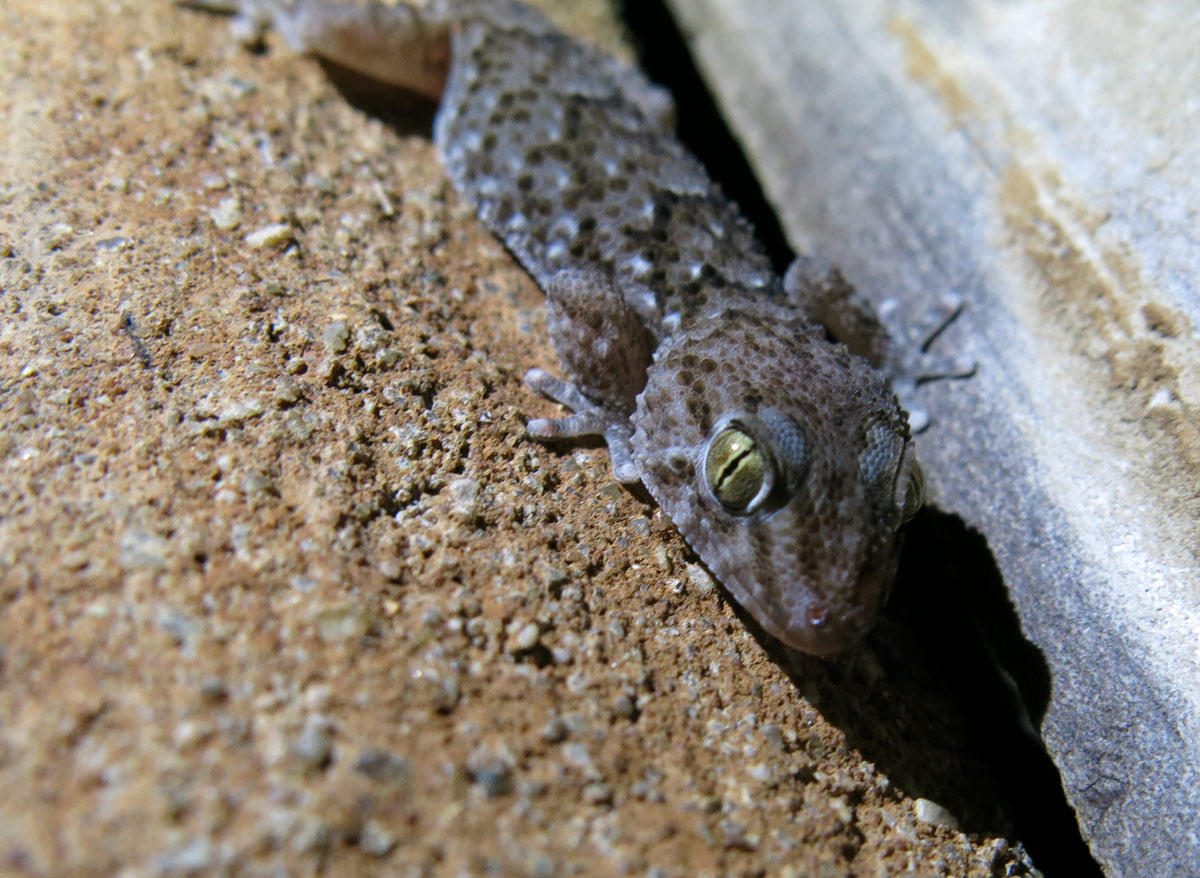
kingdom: Animalia
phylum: Chordata
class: Squamata
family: Gekkonidae
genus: Chondrodactylus
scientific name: Chondrodactylus turneri
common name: Turner’s gecko
